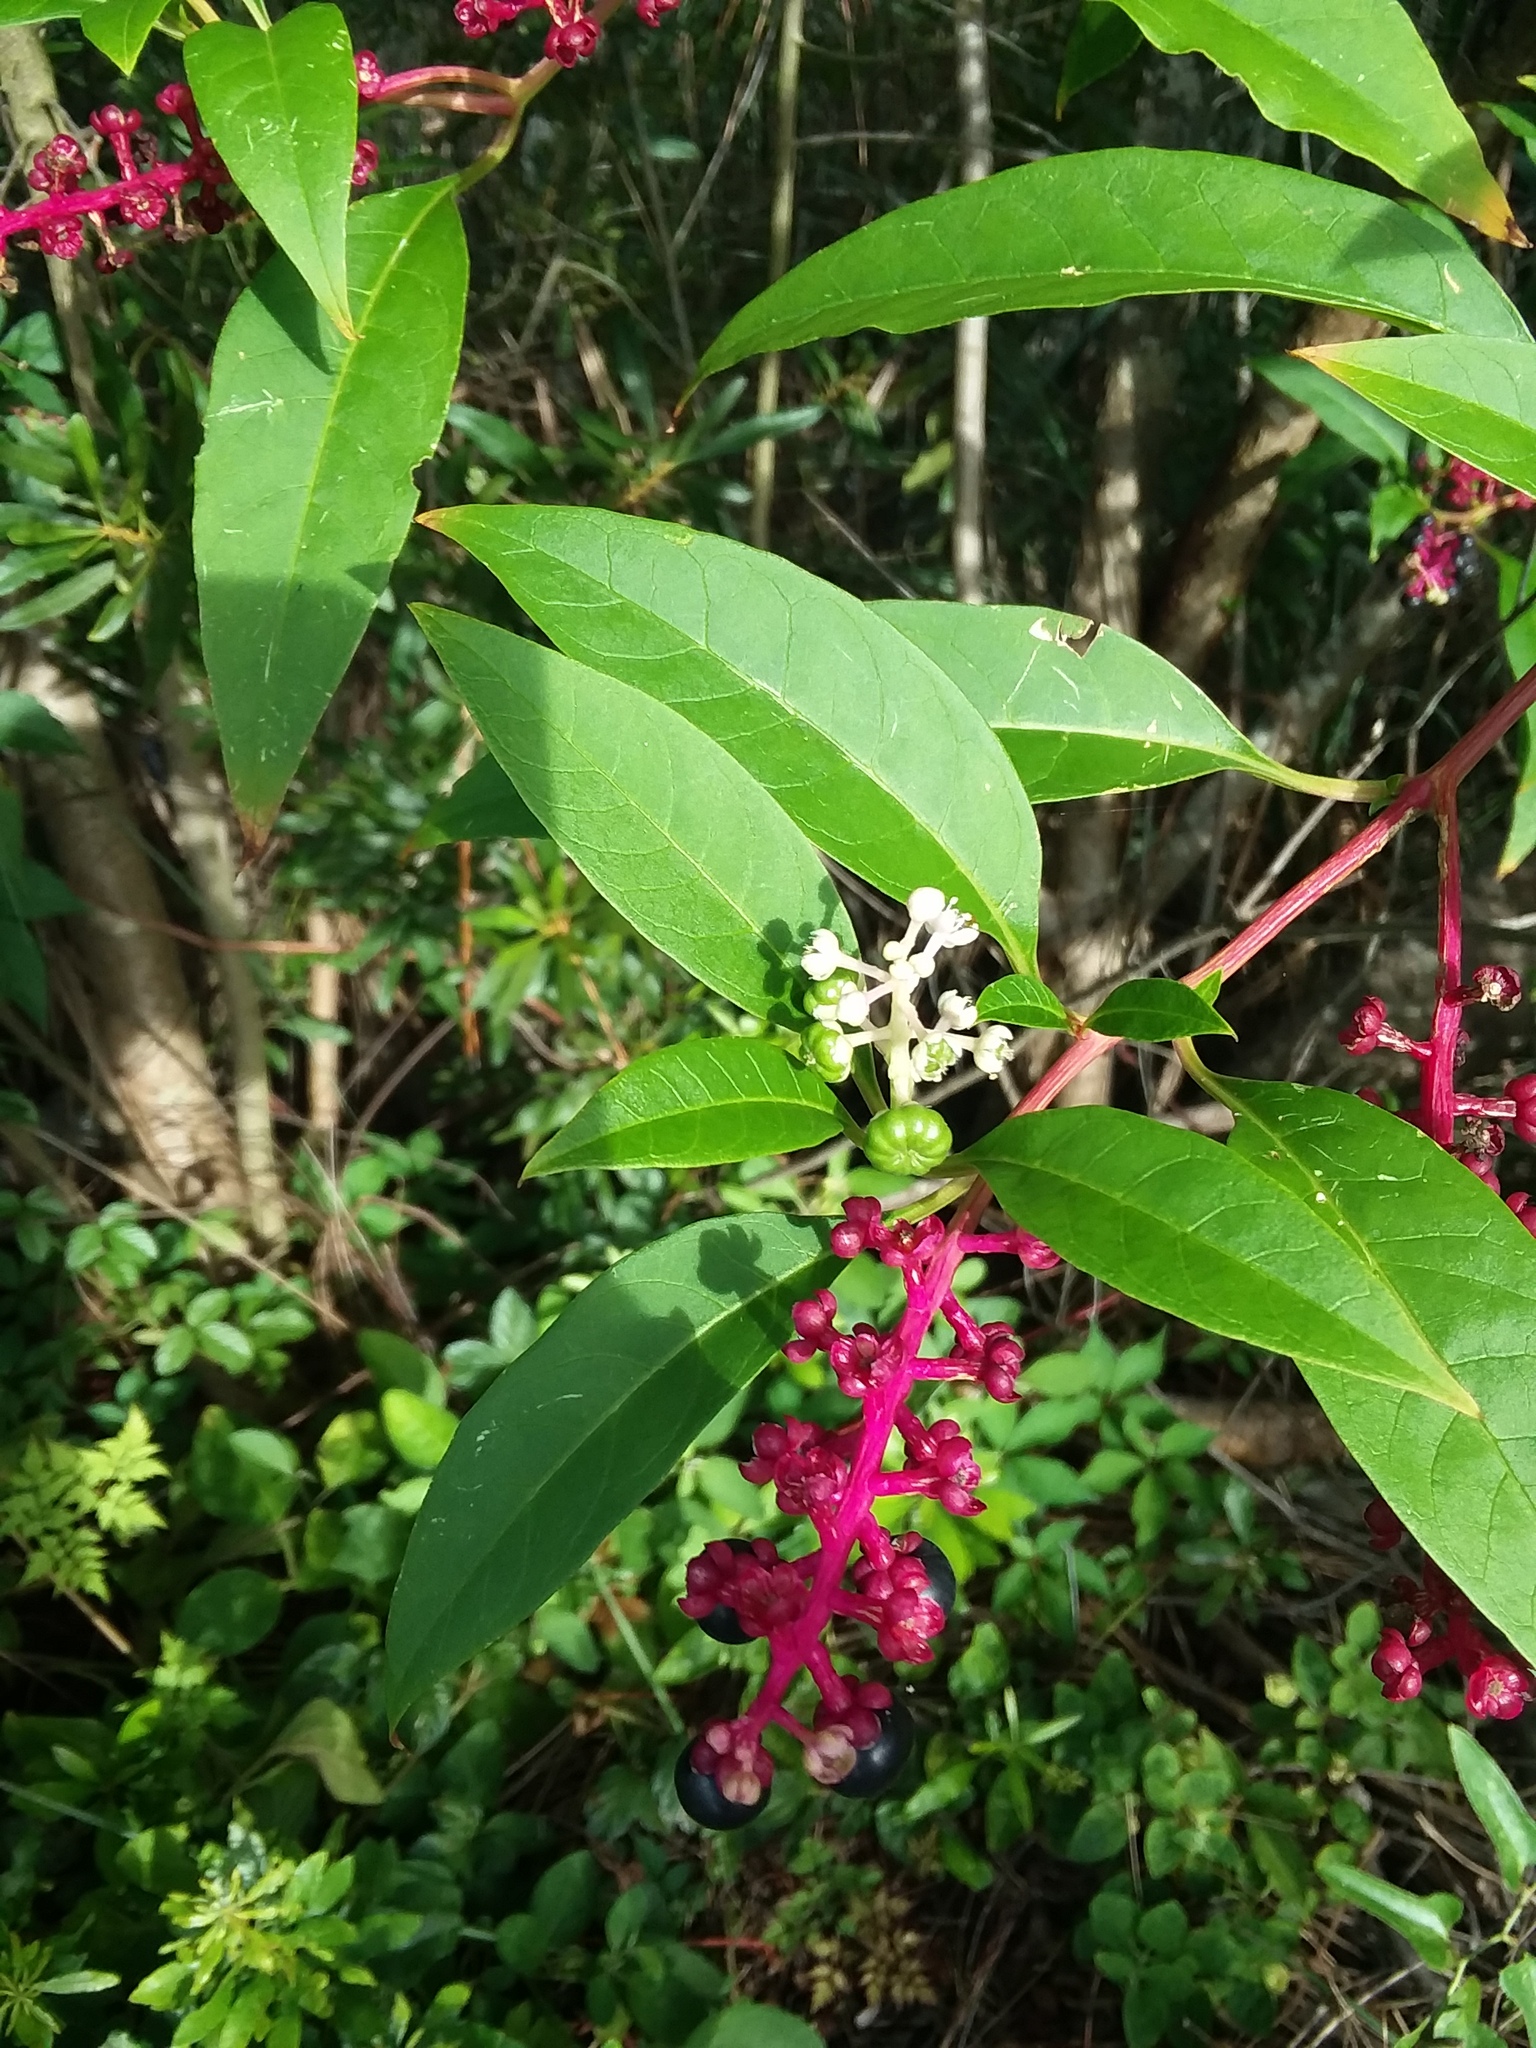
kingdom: Plantae
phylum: Tracheophyta
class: Magnoliopsida
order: Caryophyllales
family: Phytolaccaceae
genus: Phytolacca
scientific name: Phytolacca americana
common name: American pokeweed
